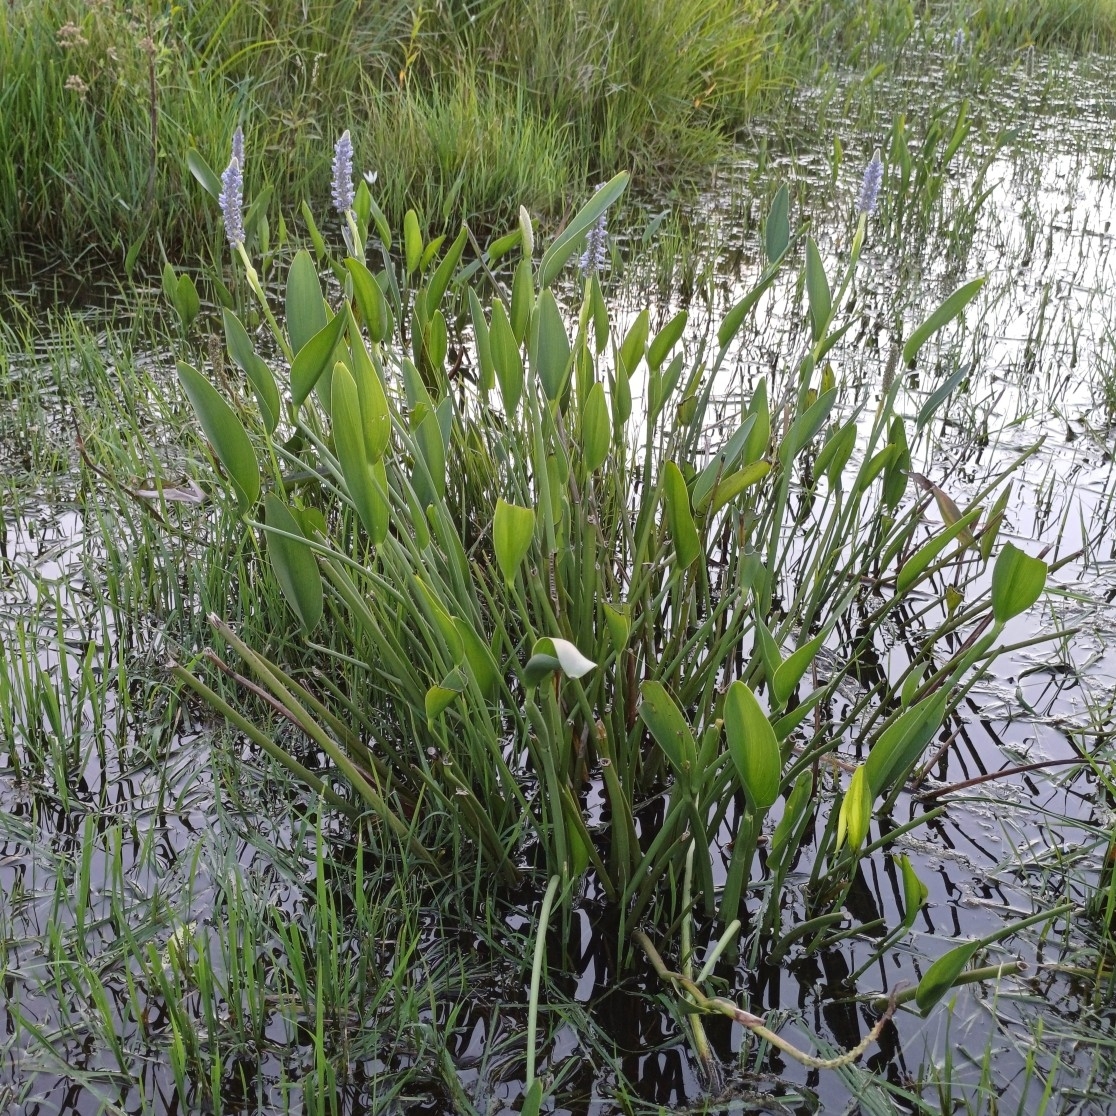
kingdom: Plantae
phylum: Tracheophyta
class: Liliopsida
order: Commelinales
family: Pontederiaceae
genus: Pontederia
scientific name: Pontederia cordata
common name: Pickerelweed
